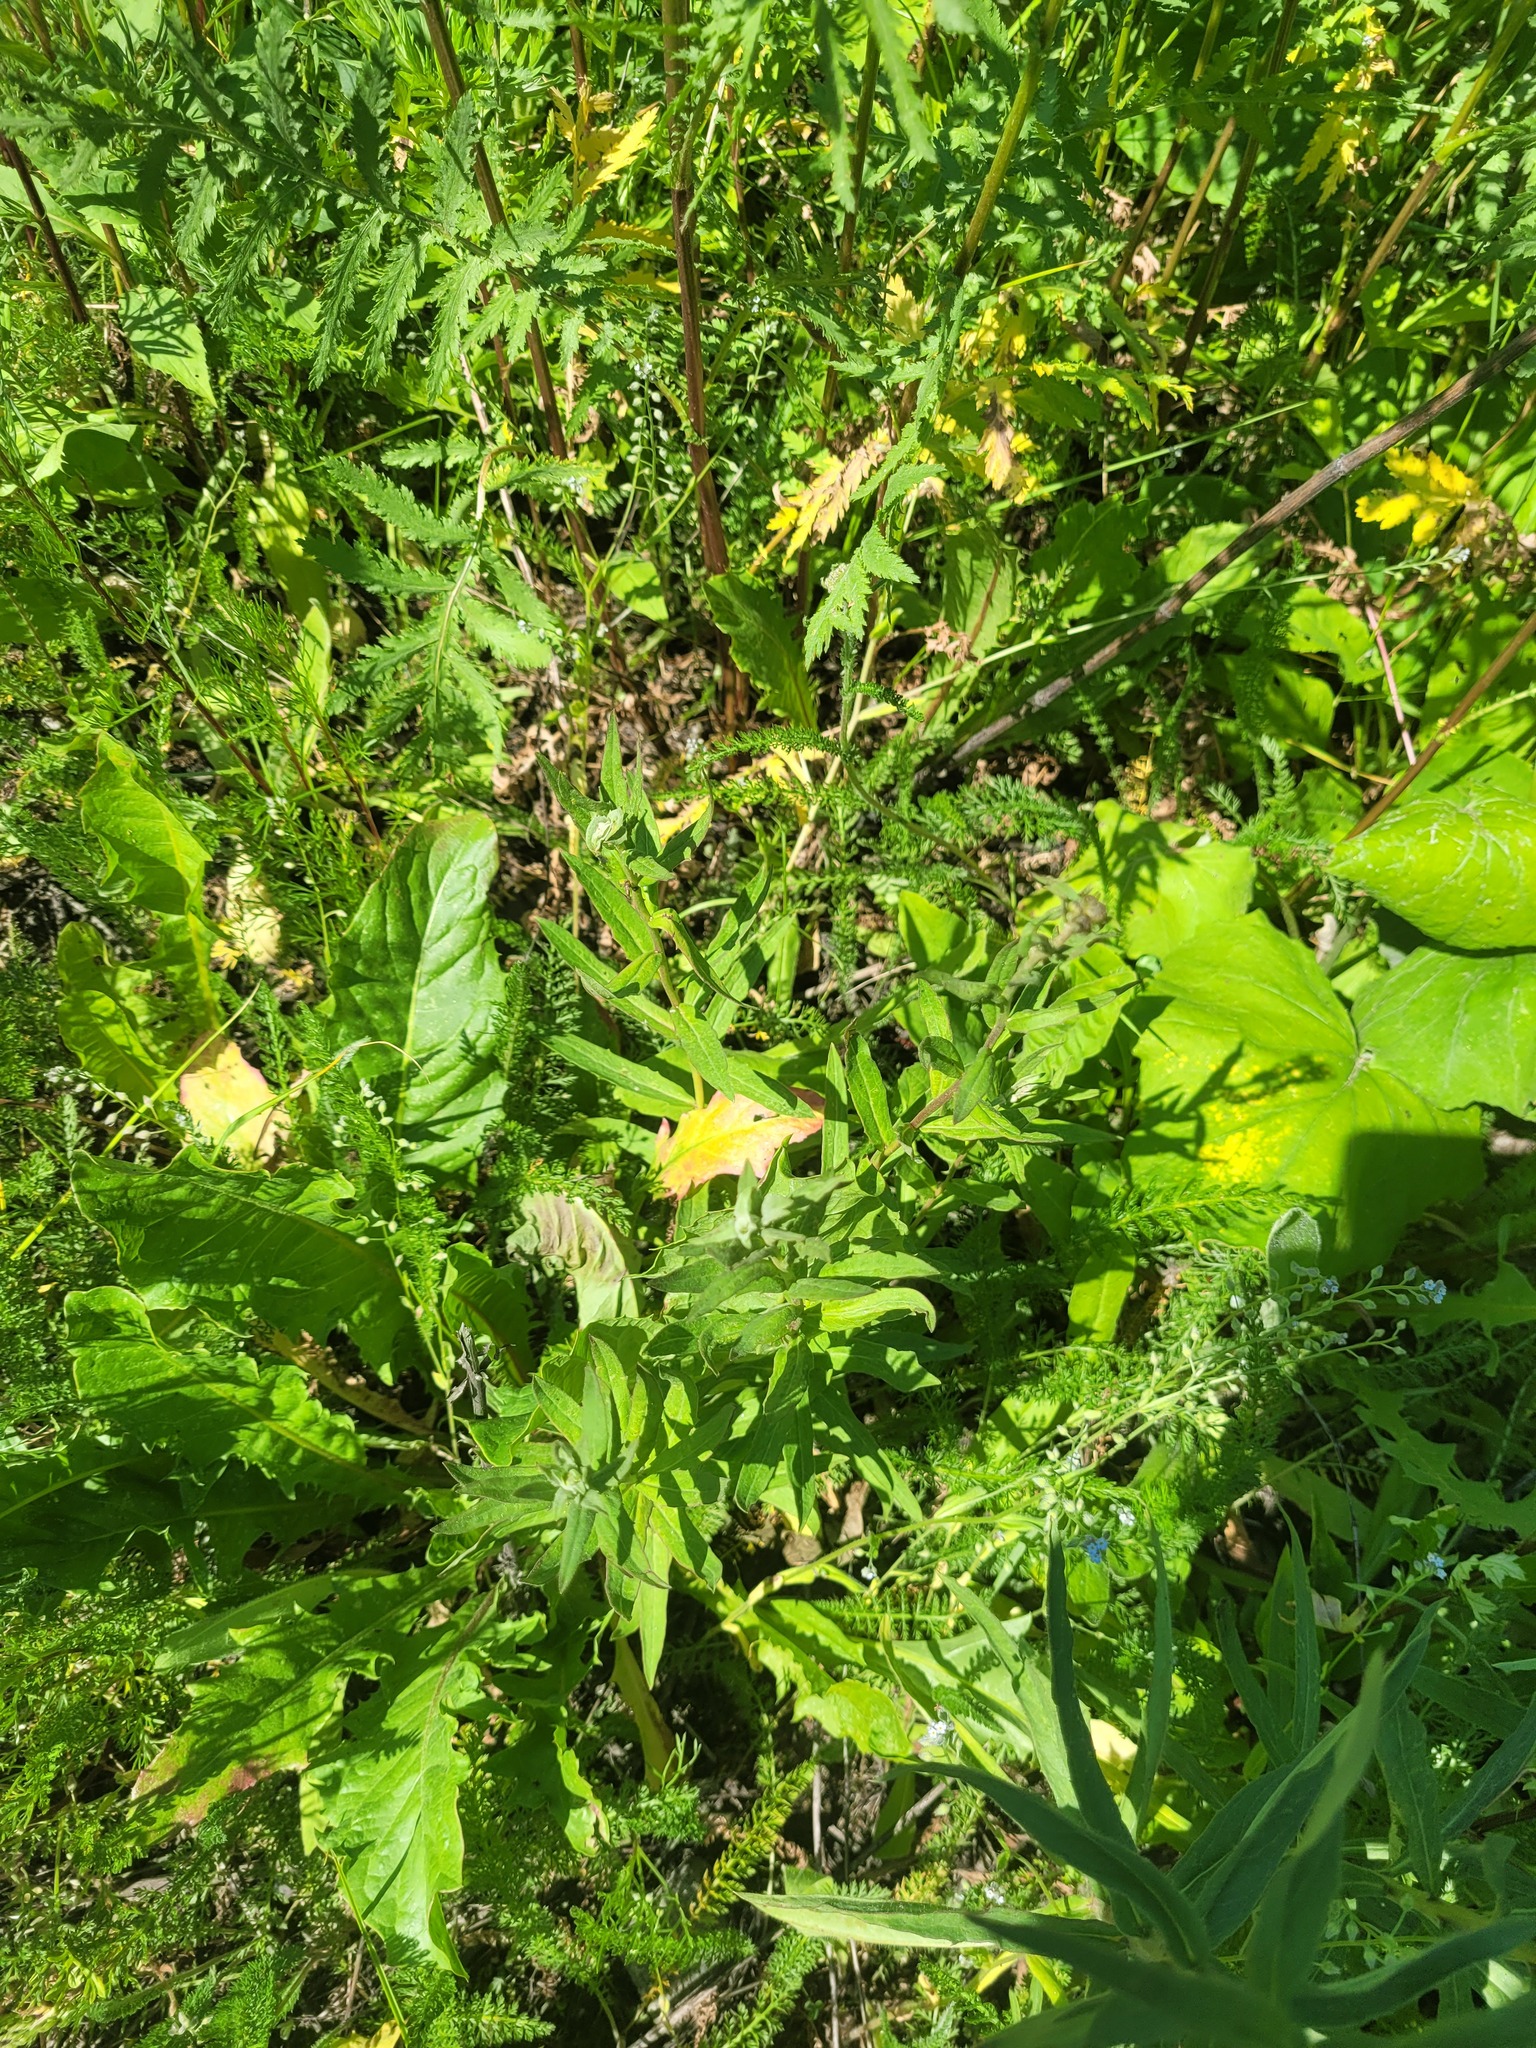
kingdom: Plantae
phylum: Tracheophyta
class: Magnoliopsida
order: Asterales
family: Asteraceae
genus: Hieracium
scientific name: Hieracium umbellatum
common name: Northern hawkweed
